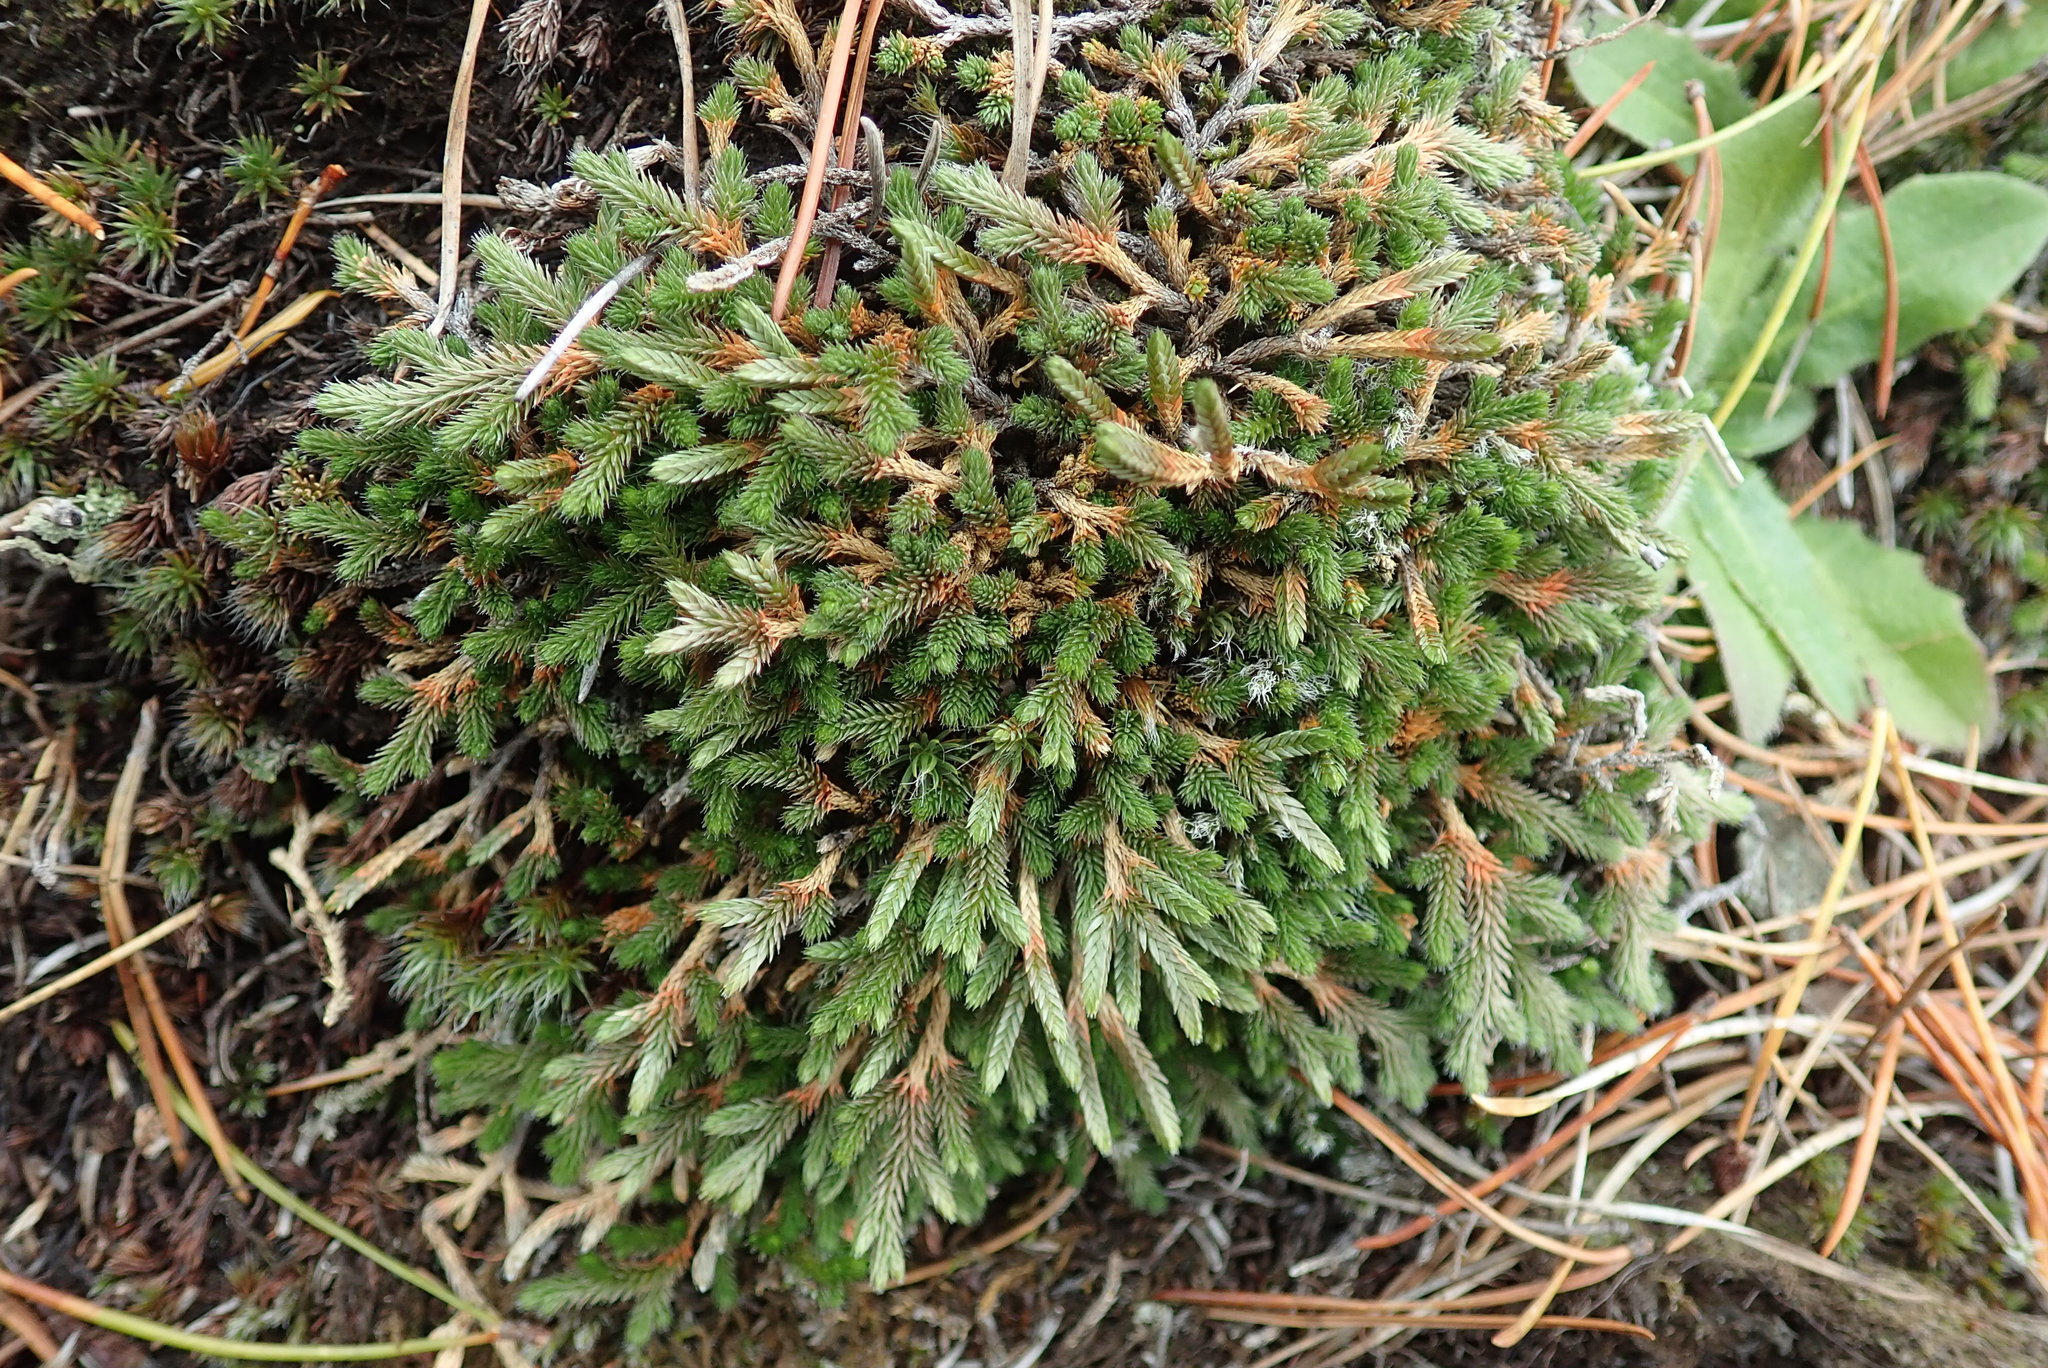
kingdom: Plantae
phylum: Tracheophyta
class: Lycopodiopsida
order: Selaginellales
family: Selaginellaceae
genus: Selaginella
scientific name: Selaginella wallacei
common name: Wallace's selaginella
